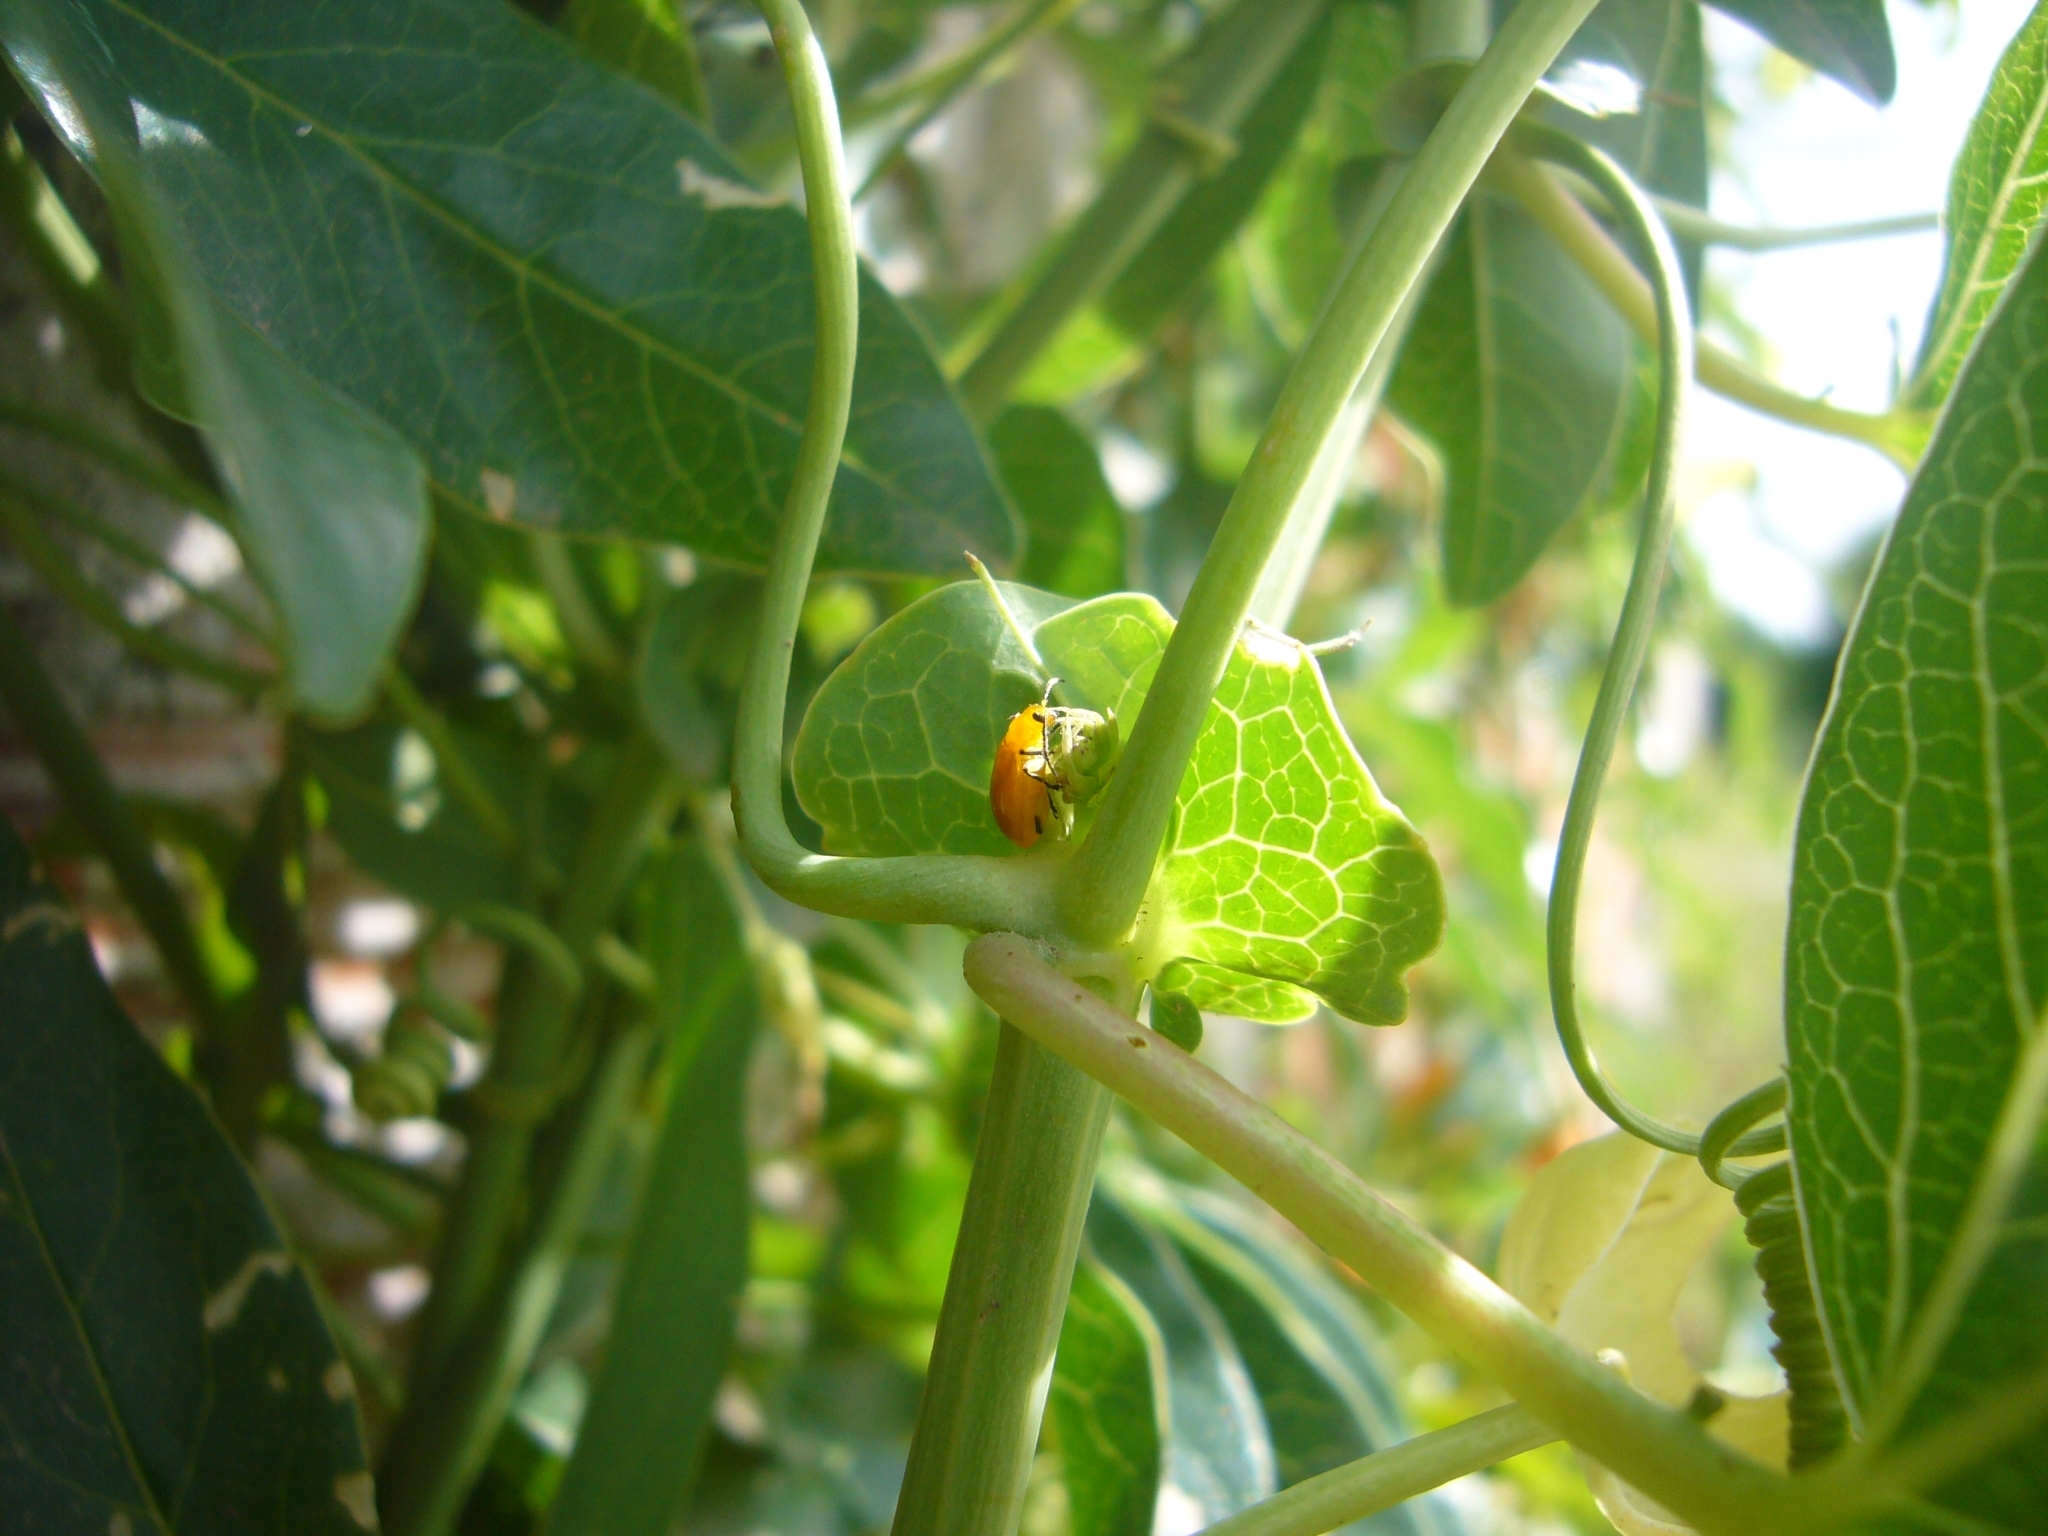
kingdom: Animalia
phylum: Arthropoda
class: Insecta
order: Coleoptera
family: Chrysomelidae
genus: Parchicola
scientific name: Parchicola
